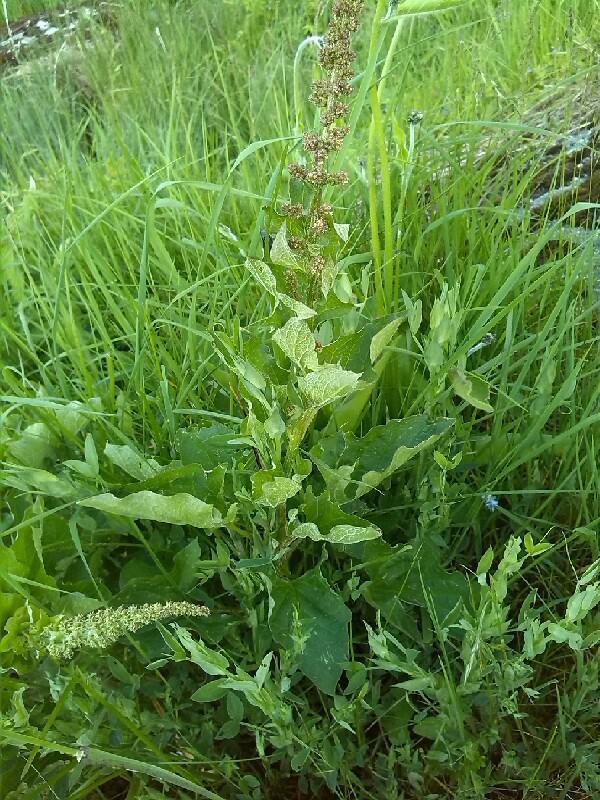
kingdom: Plantae
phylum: Tracheophyta
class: Magnoliopsida
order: Caryophyllales
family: Amaranthaceae
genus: Blitum
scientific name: Blitum bonus-henricus
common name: Good king henry
